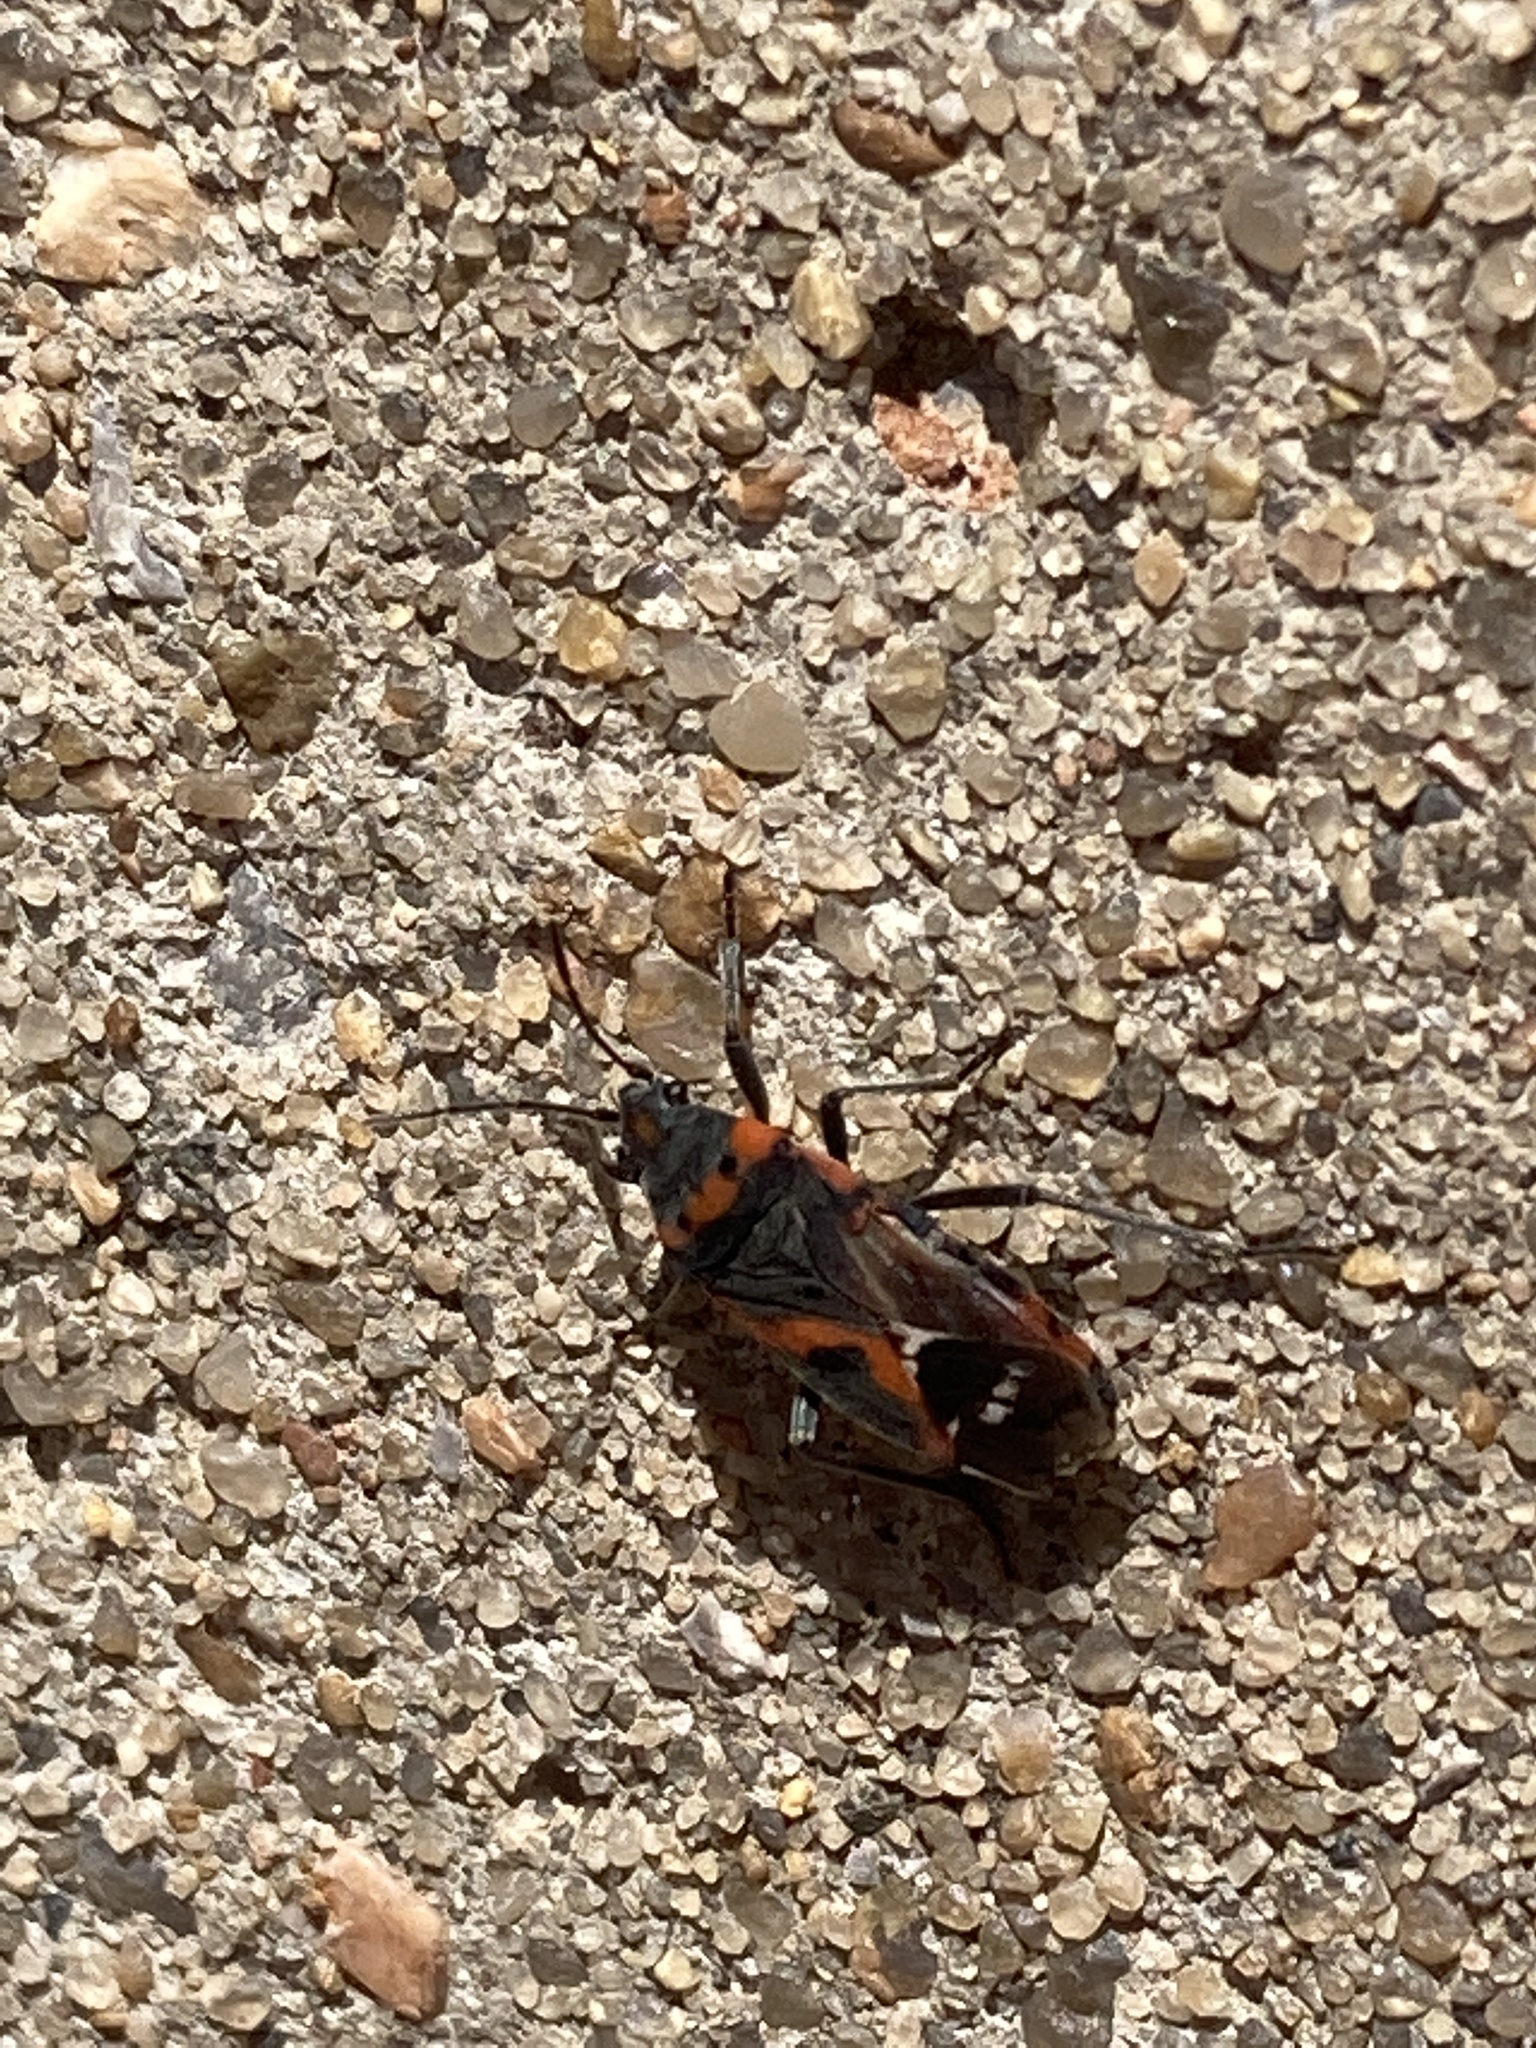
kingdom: Animalia
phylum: Arthropoda
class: Insecta
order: Hemiptera
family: Lygaeidae
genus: Lygaeus
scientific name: Lygaeus kalmii
